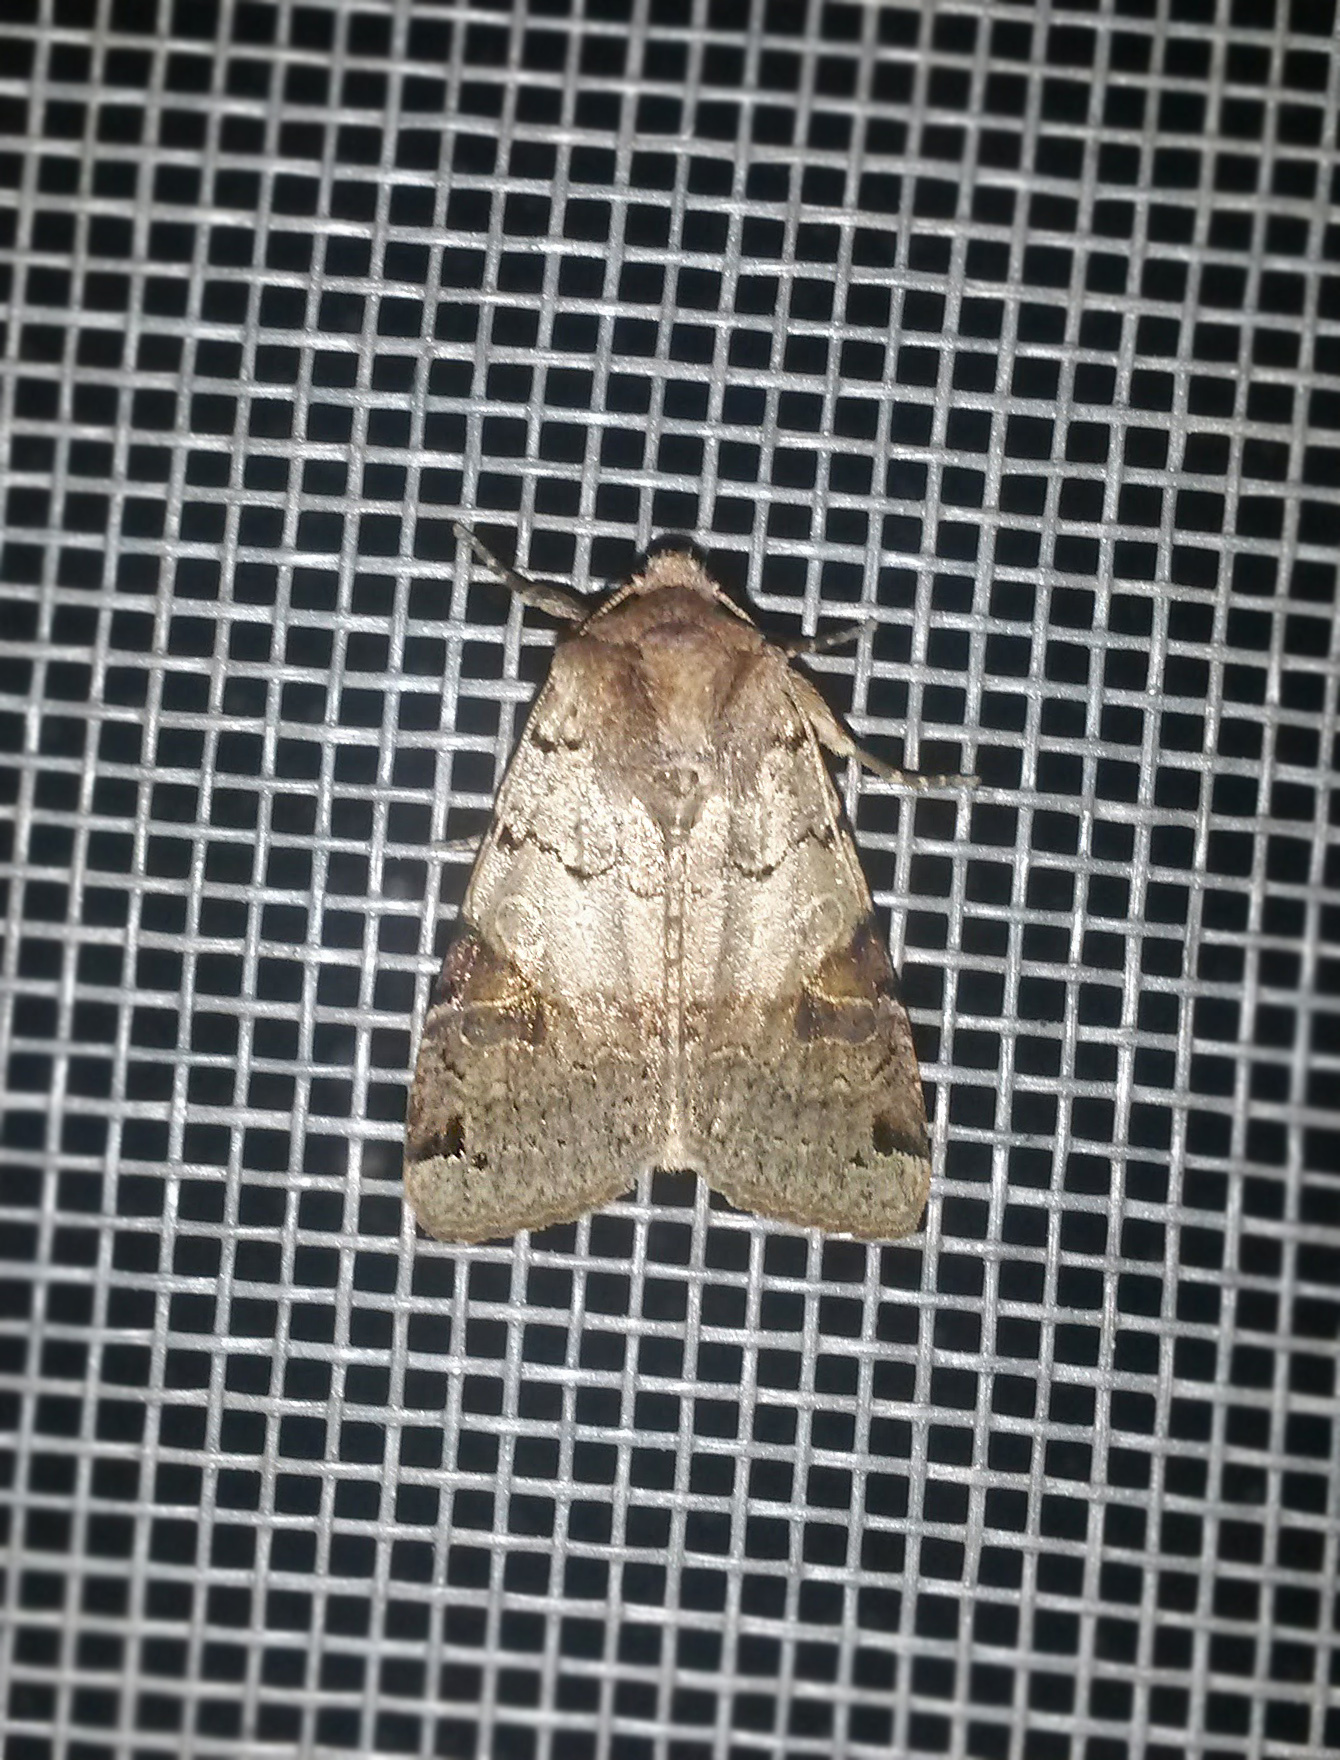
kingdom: Animalia
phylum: Arthropoda
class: Insecta
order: Lepidoptera
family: Noctuidae
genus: Agrochola
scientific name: Agrochola litura
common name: Brown-spot pinion
